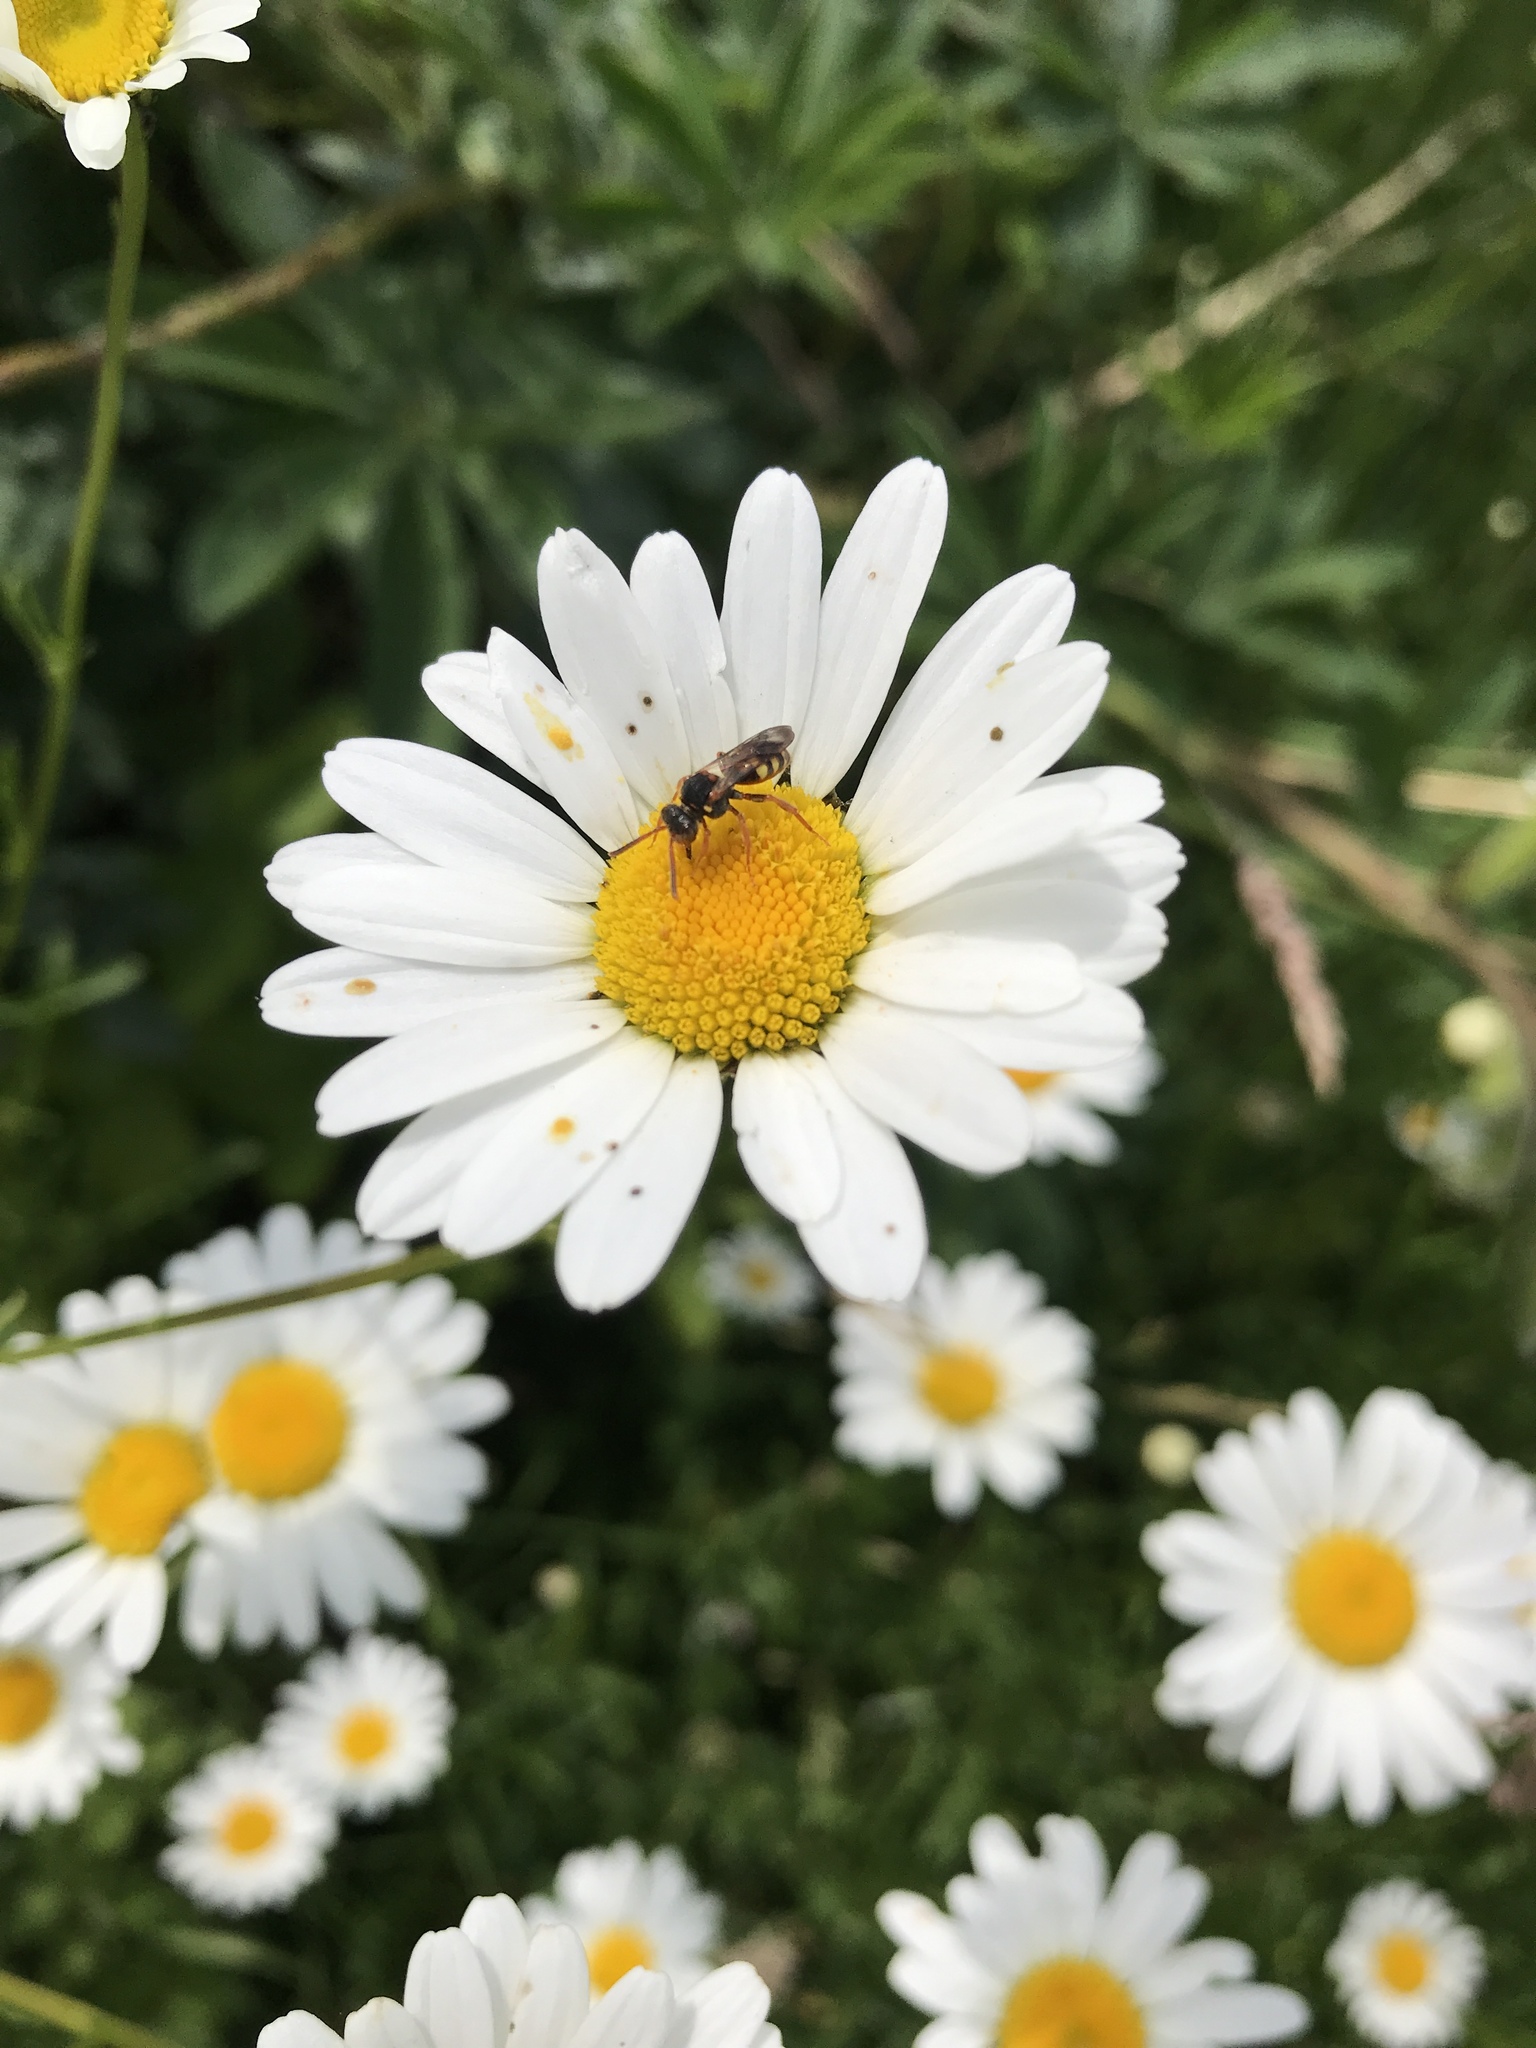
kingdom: Plantae
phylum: Tracheophyta
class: Magnoliopsida
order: Asterales
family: Asteraceae
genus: Leucanthemum
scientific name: Leucanthemum vulgare
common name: Oxeye daisy
